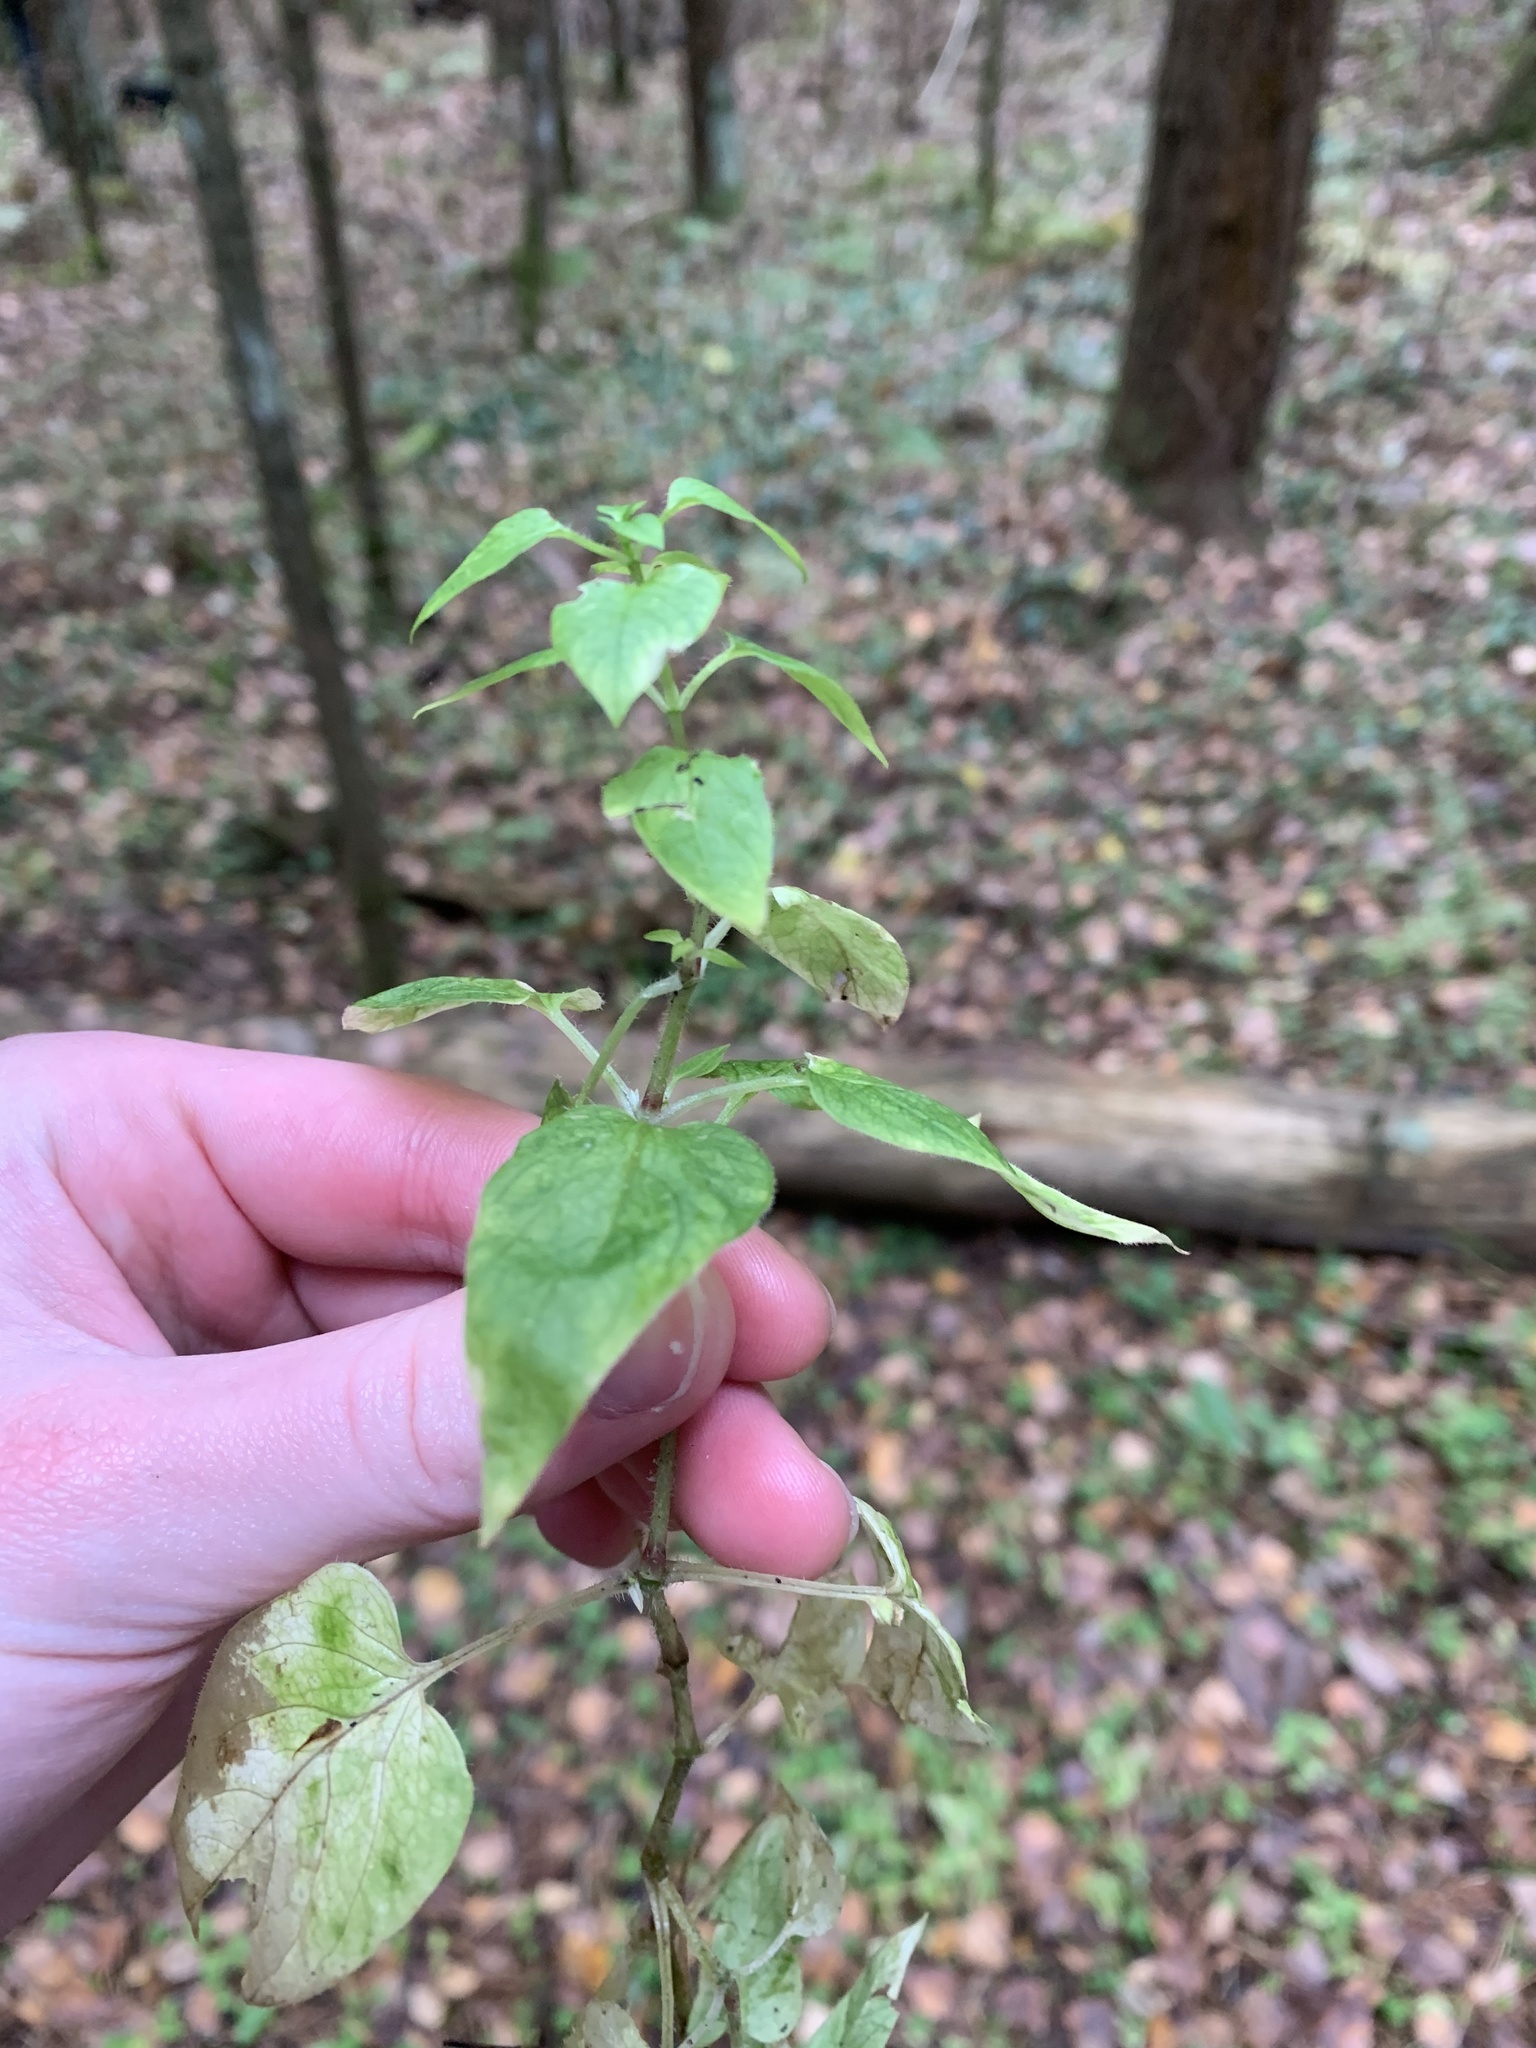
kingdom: Plantae
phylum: Tracheophyta
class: Magnoliopsida
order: Caryophyllales
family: Caryophyllaceae
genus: Stellaria
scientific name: Stellaria nemorum
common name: Wood stitchwort
